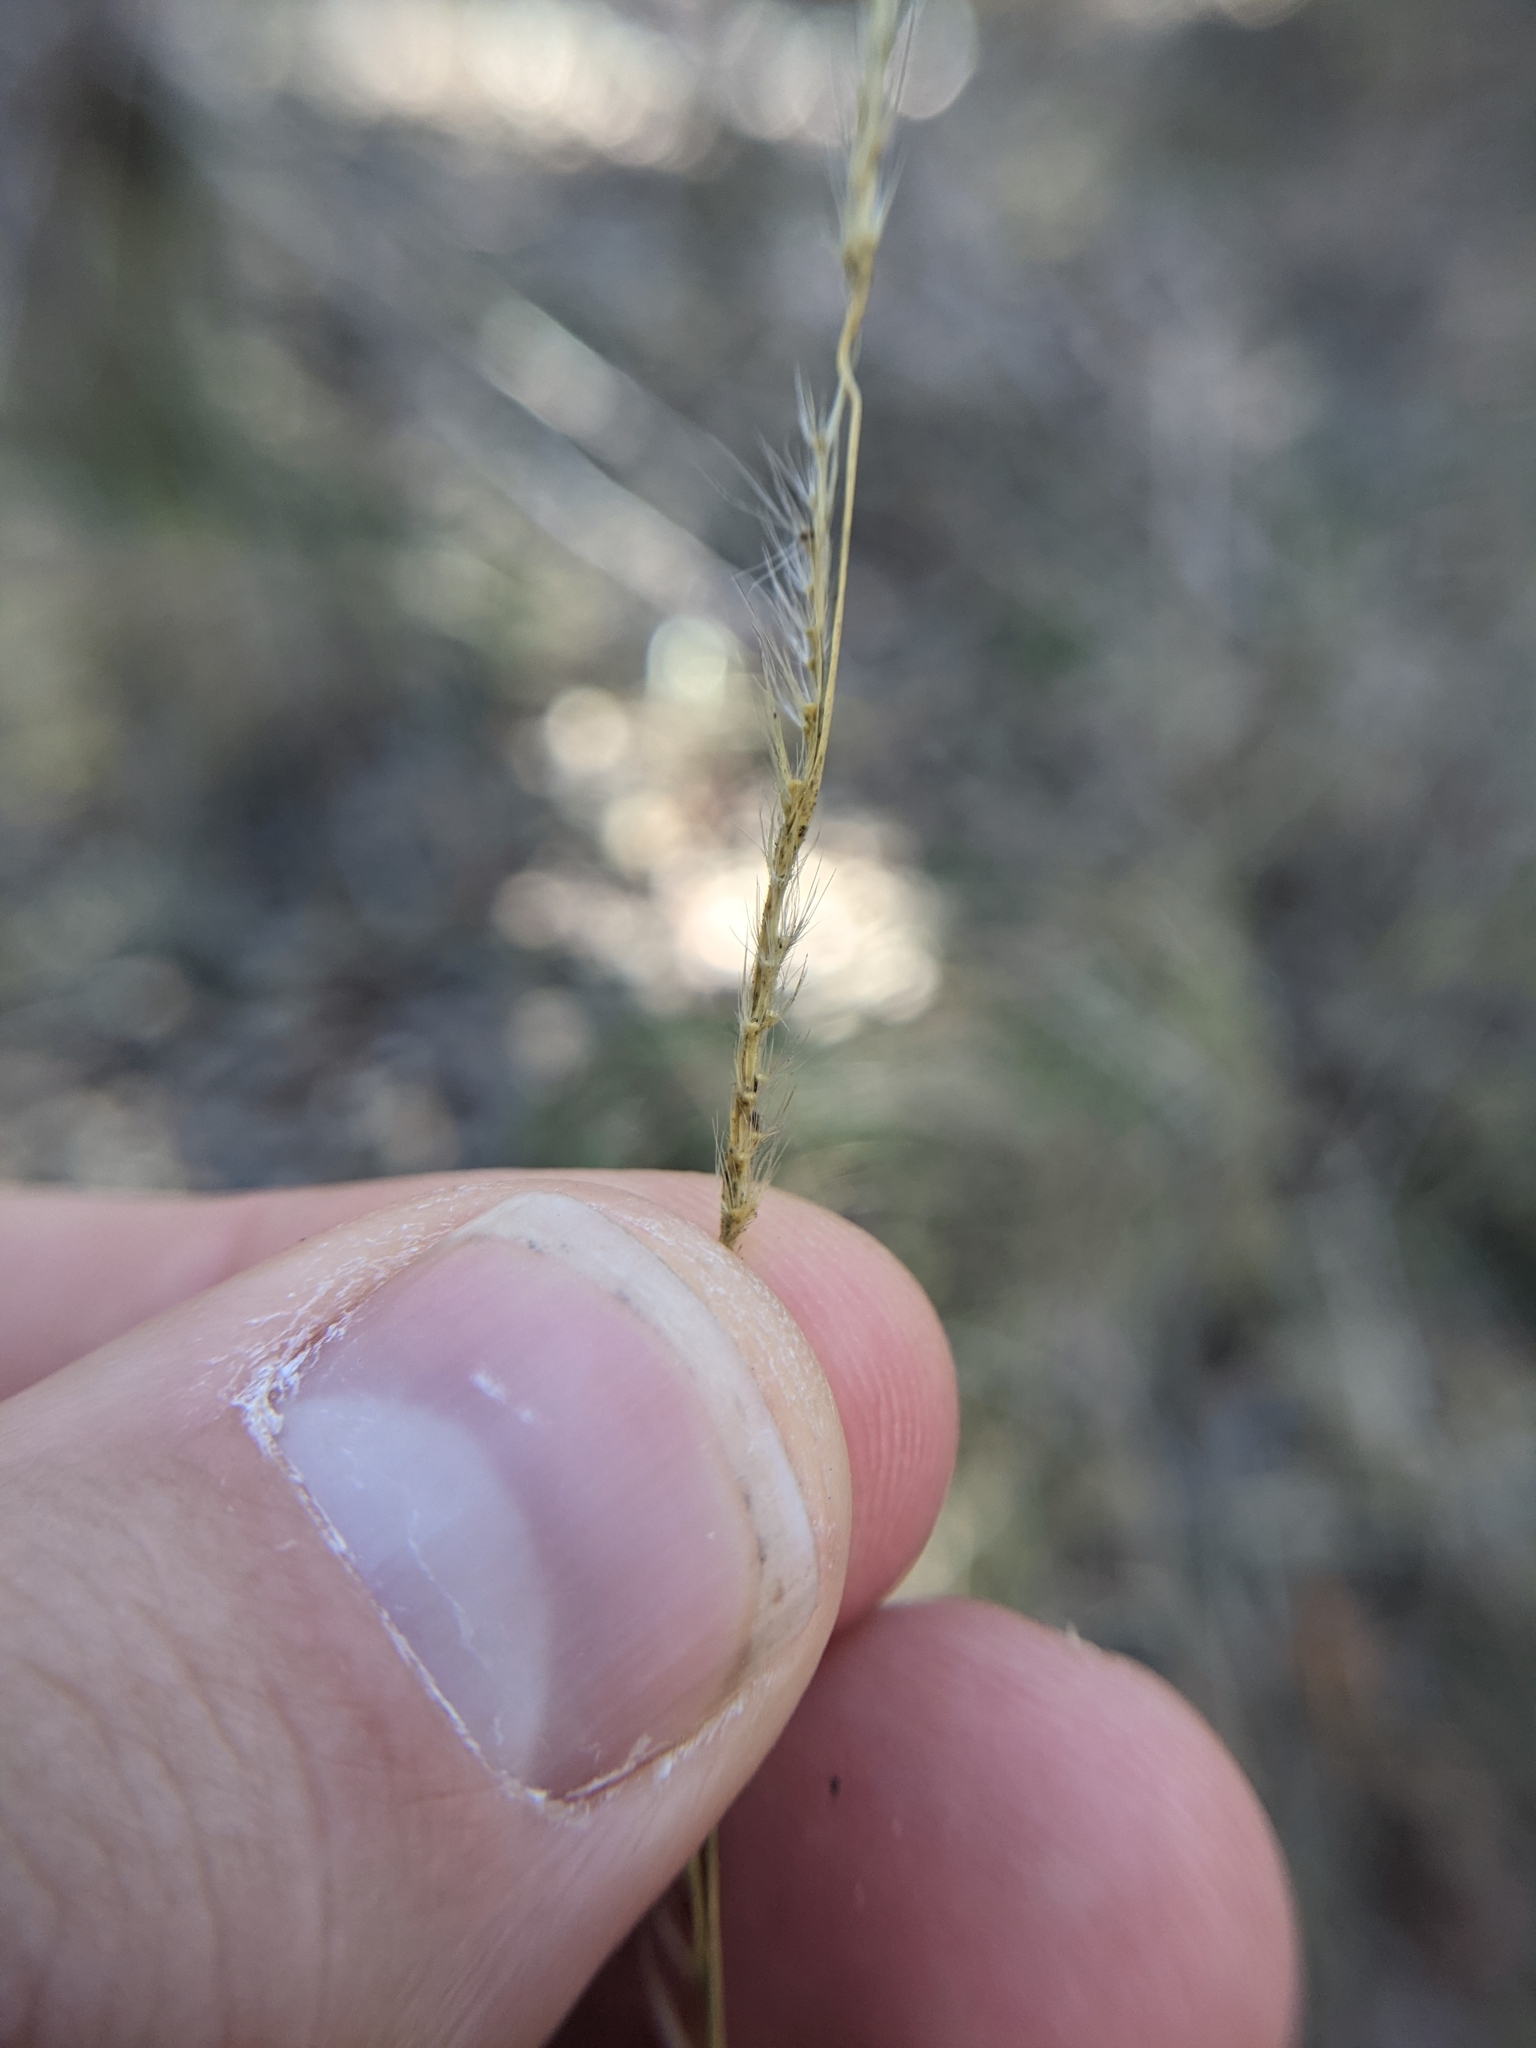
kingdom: Plantae
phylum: Tracheophyta
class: Liliopsida
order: Poales
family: Poaceae
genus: Eriochloa
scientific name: Eriochloa sericea
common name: Texas cup grass
